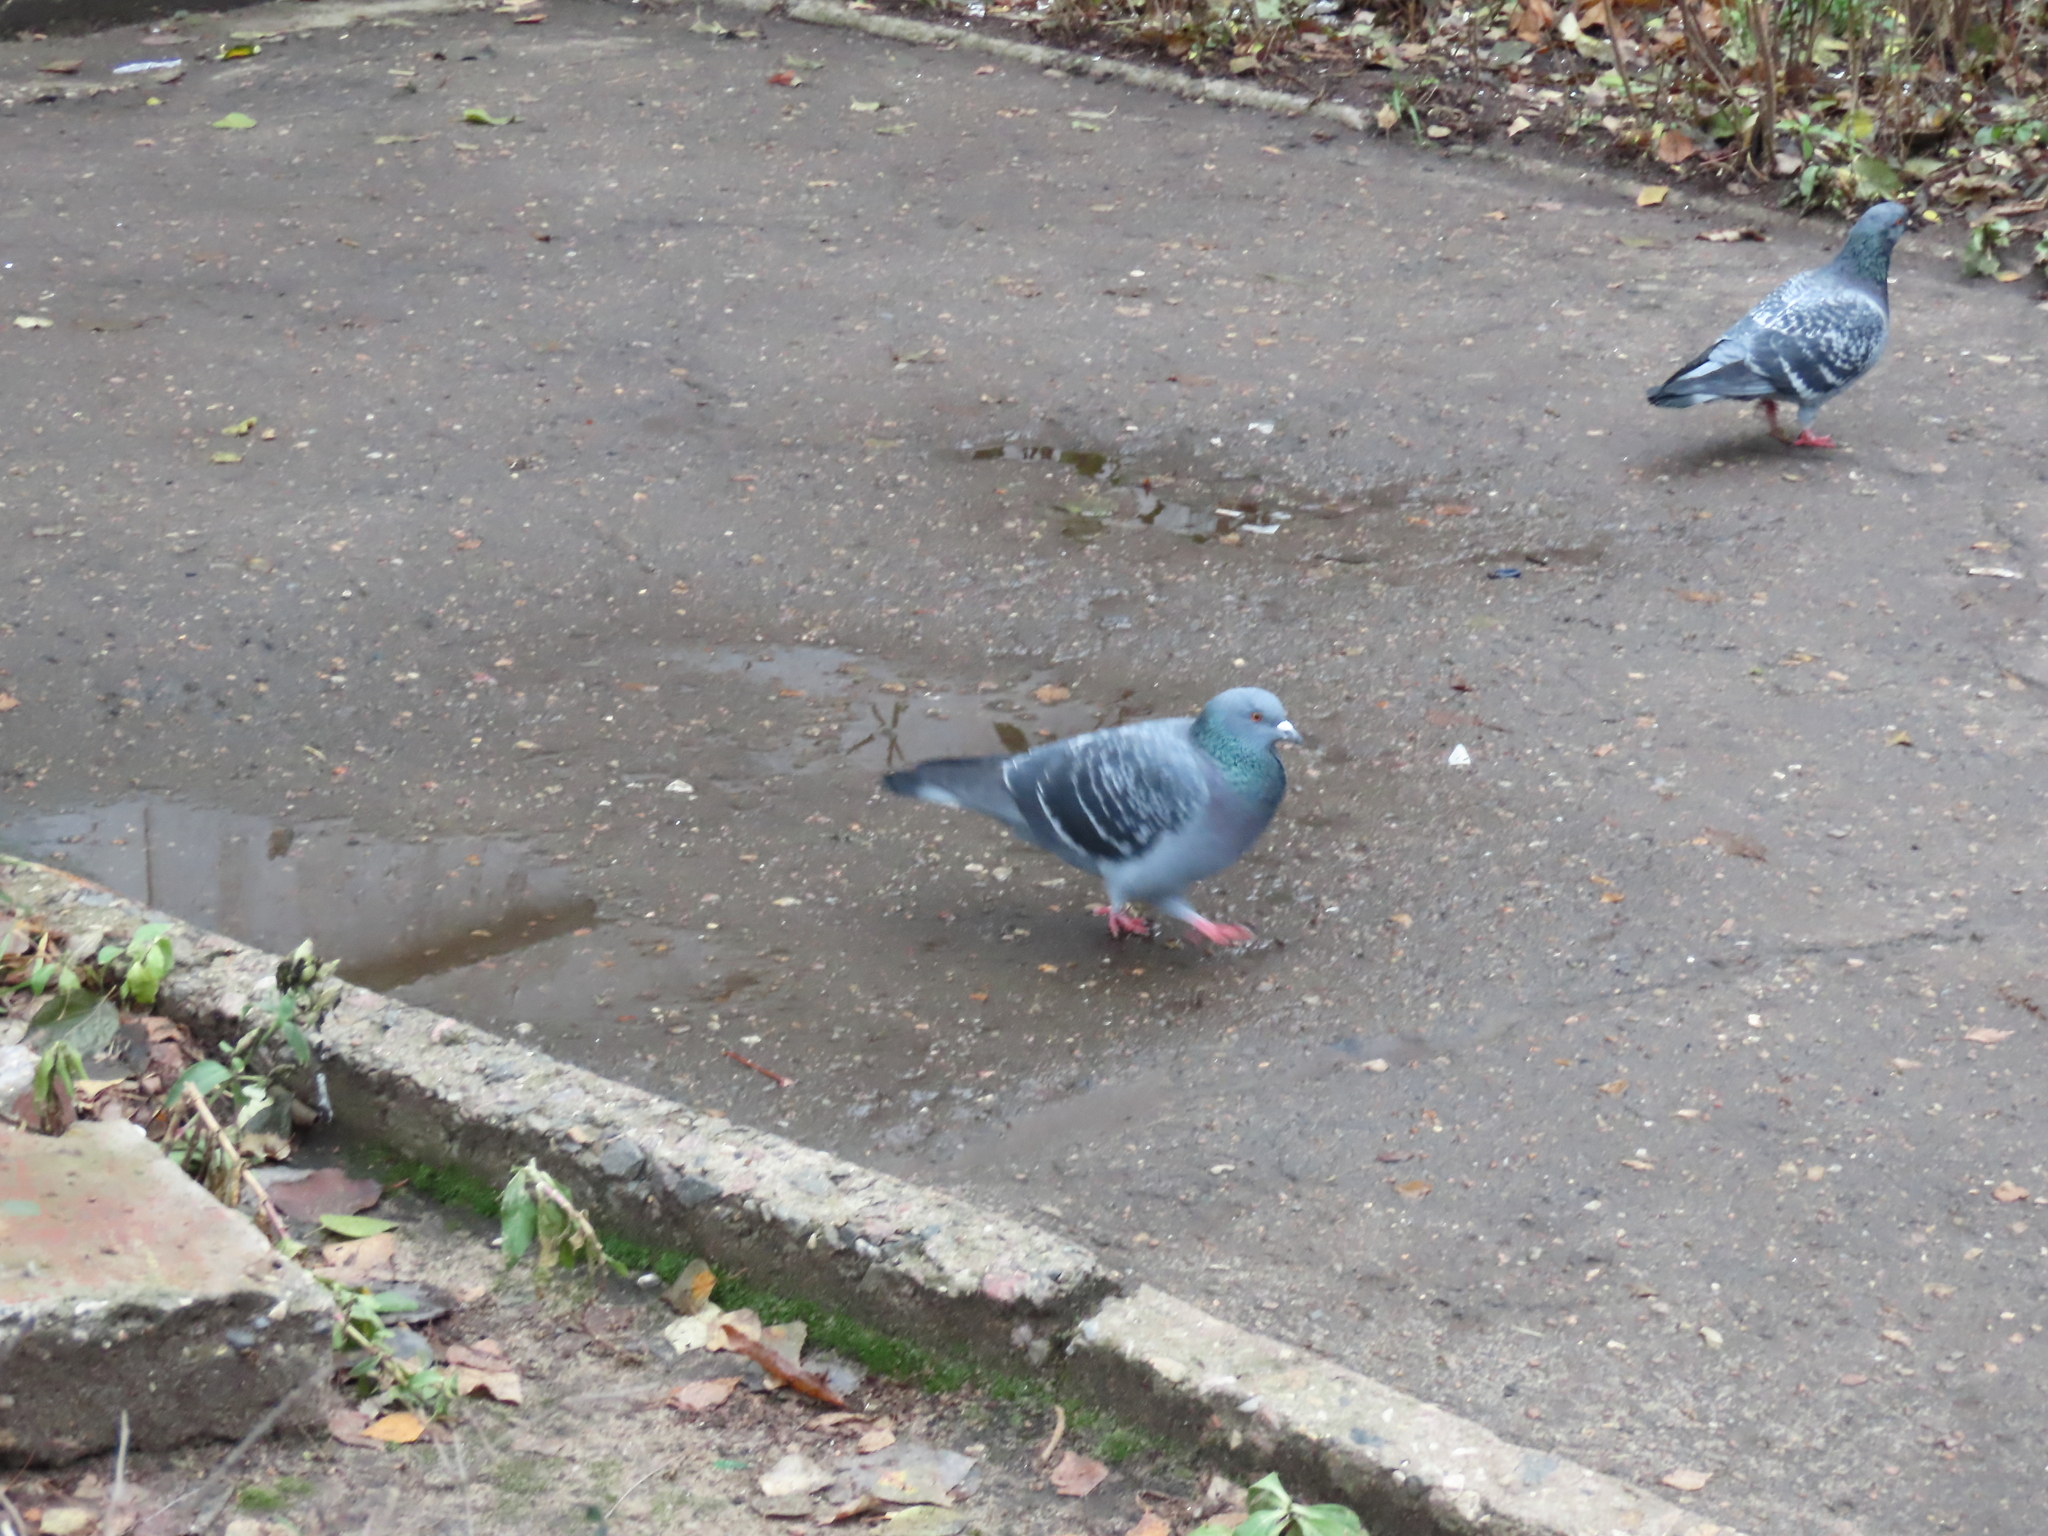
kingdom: Animalia
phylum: Chordata
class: Aves
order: Columbiformes
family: Columbidae
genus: Columba
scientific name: Columba livia
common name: Rock pigeon
